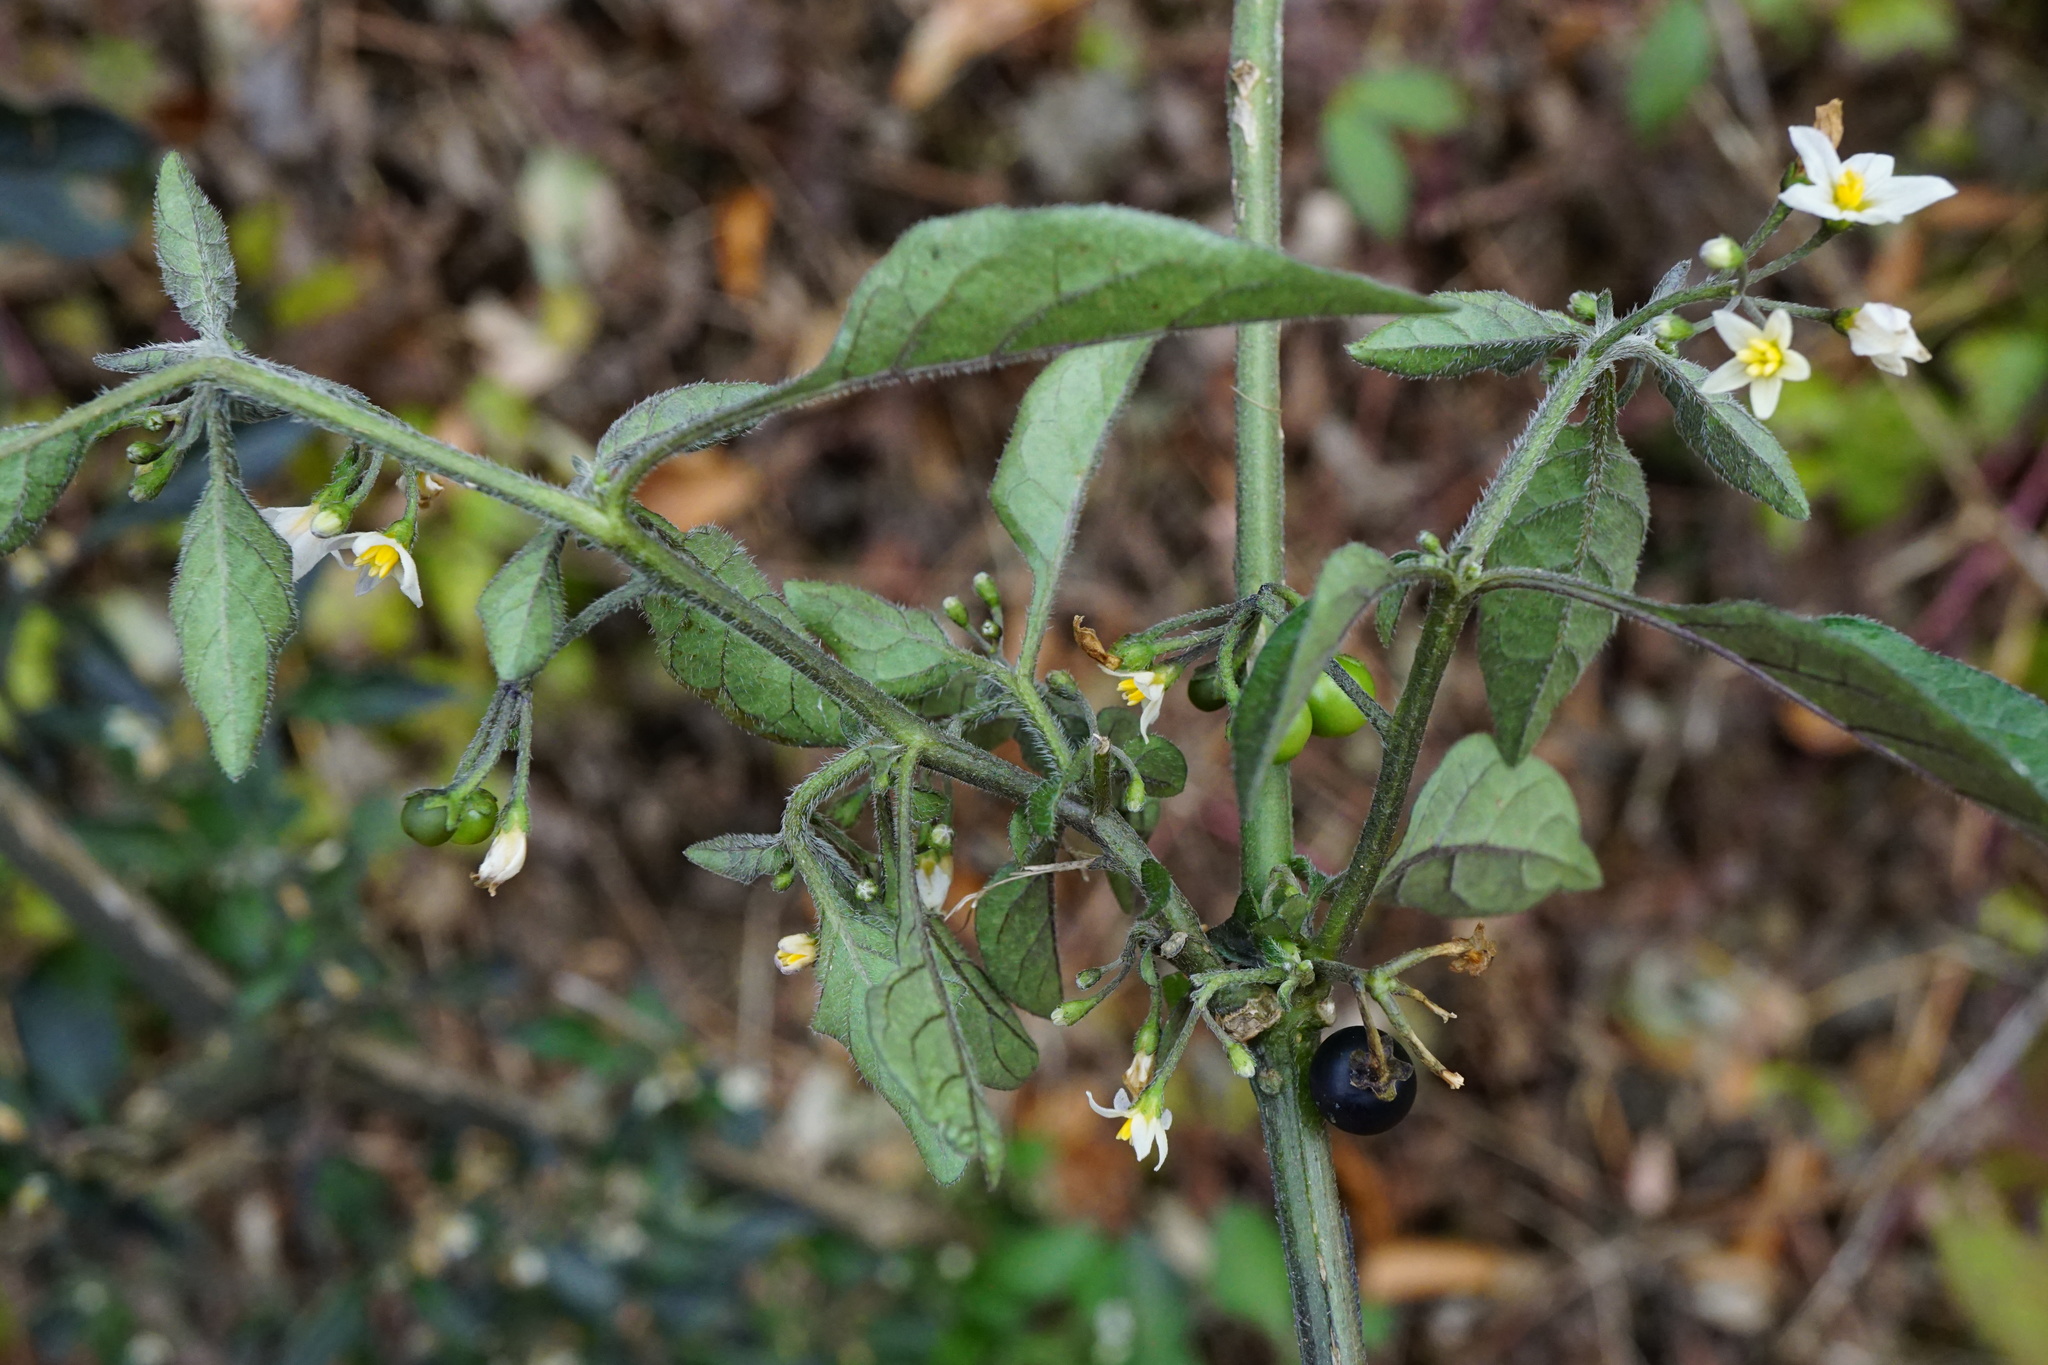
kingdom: Plantae
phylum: Tracheophyta
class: Magnoliopsida
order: Solanales
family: Solanaceae
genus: Solanum
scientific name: Solanum nigrum
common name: Black nightshade
